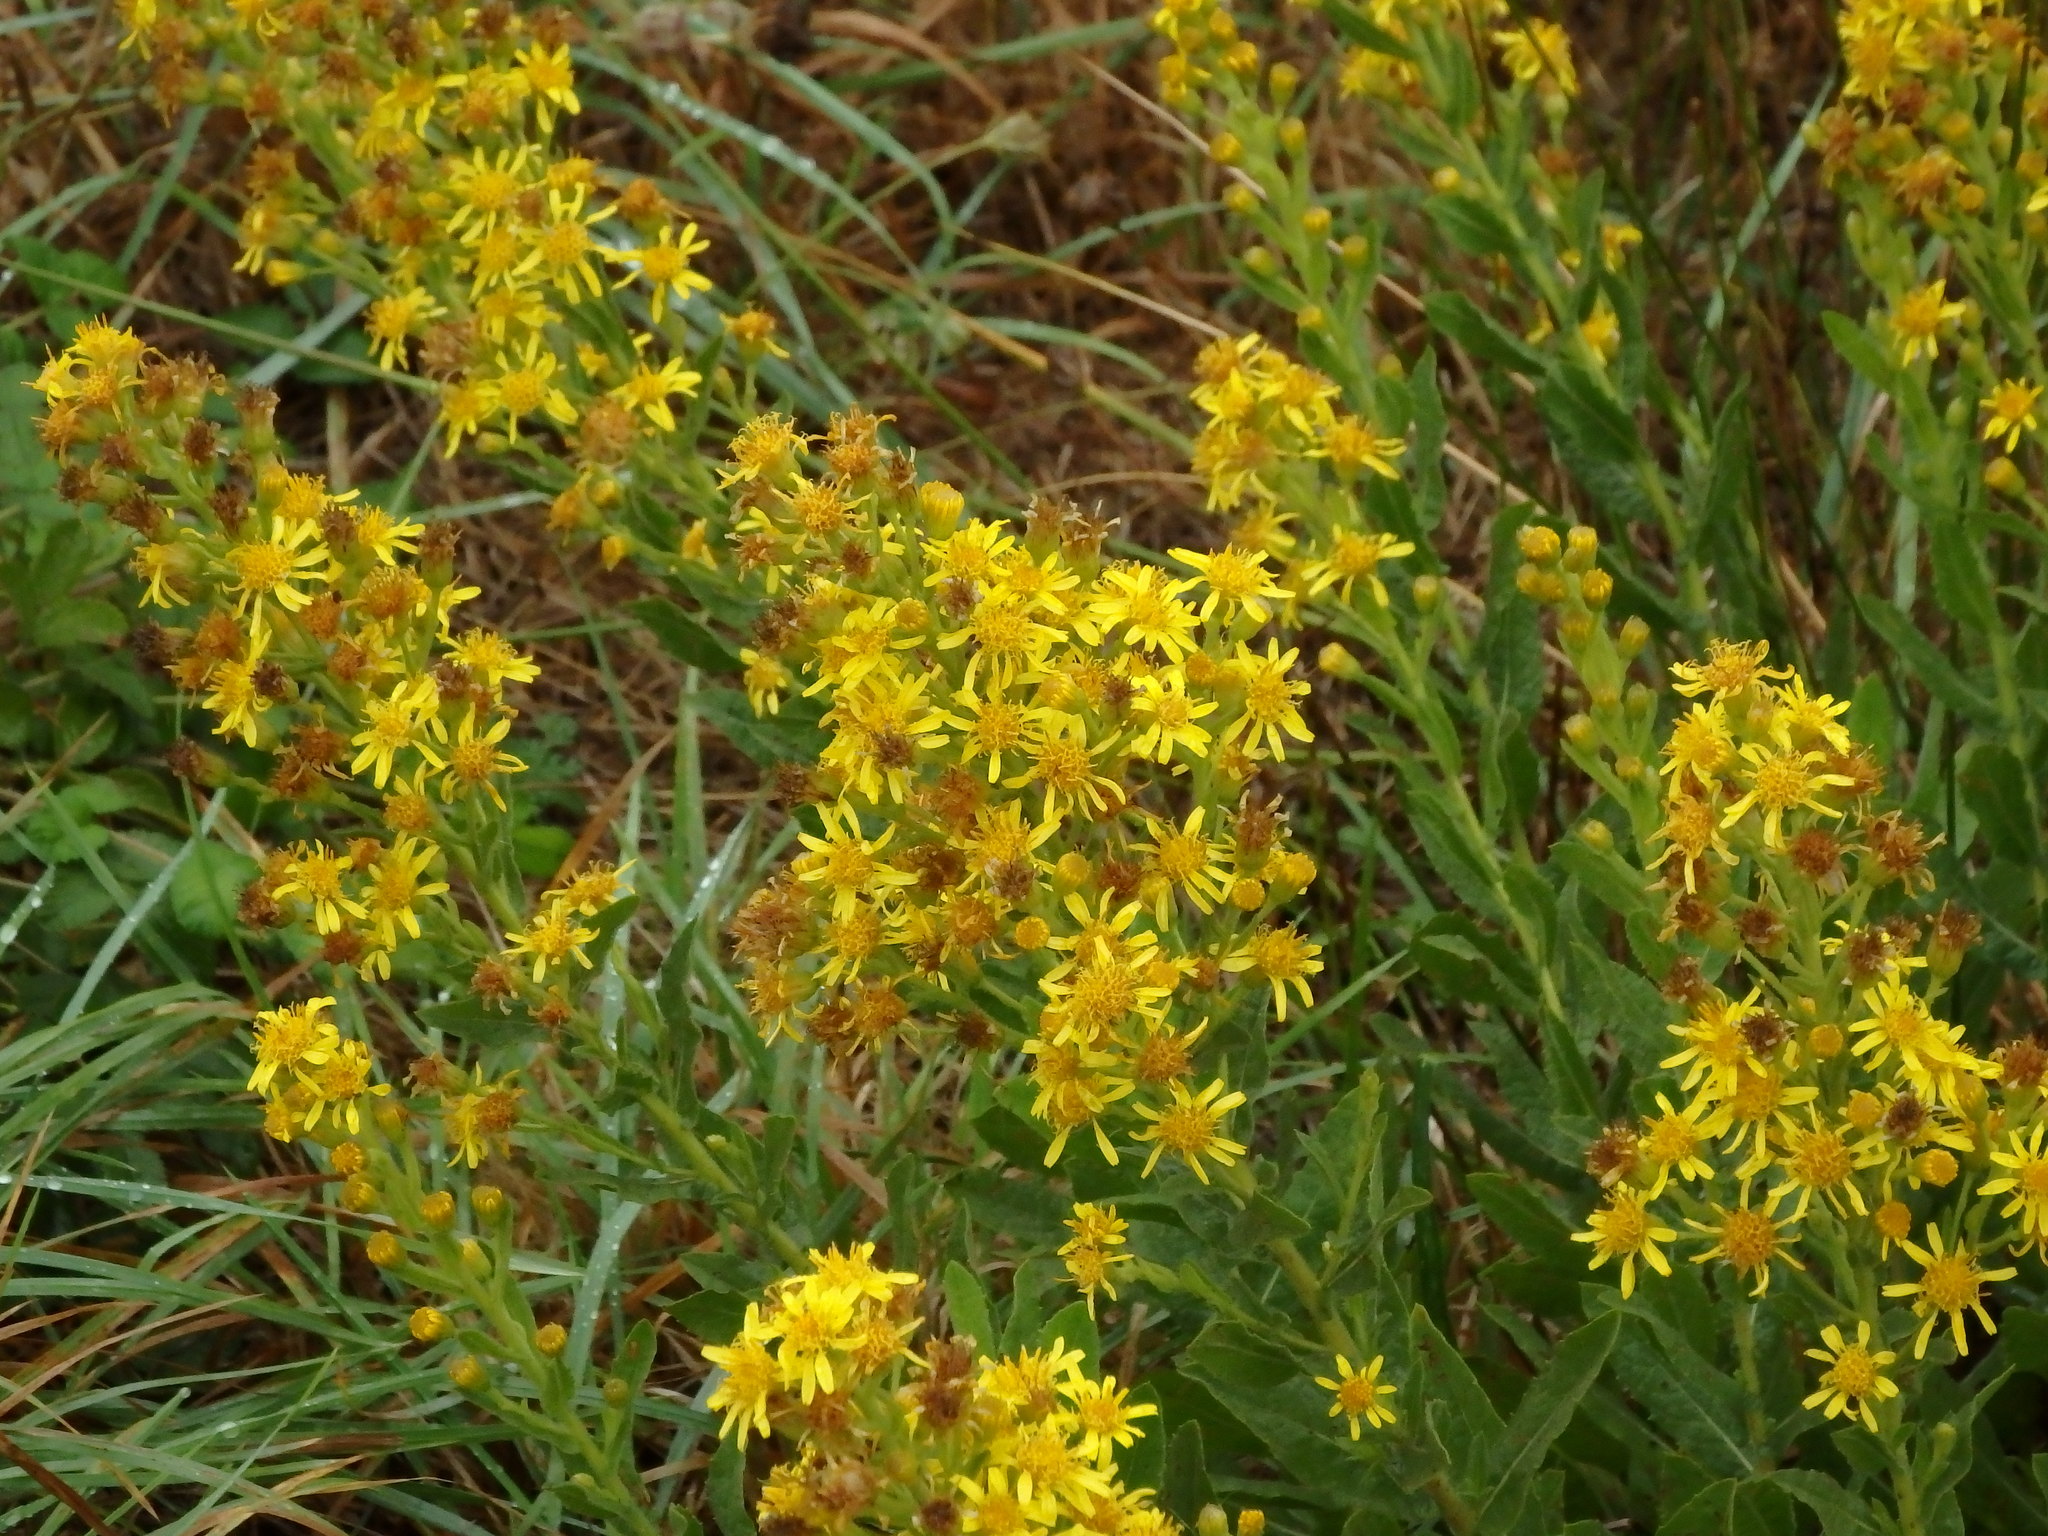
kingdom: Plantae
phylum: Tracheophyta
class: Magnoliopsida
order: Asterales
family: Asteraceae
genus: Dittrichia
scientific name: Dittrichia viscosa
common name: Woody fleabane
